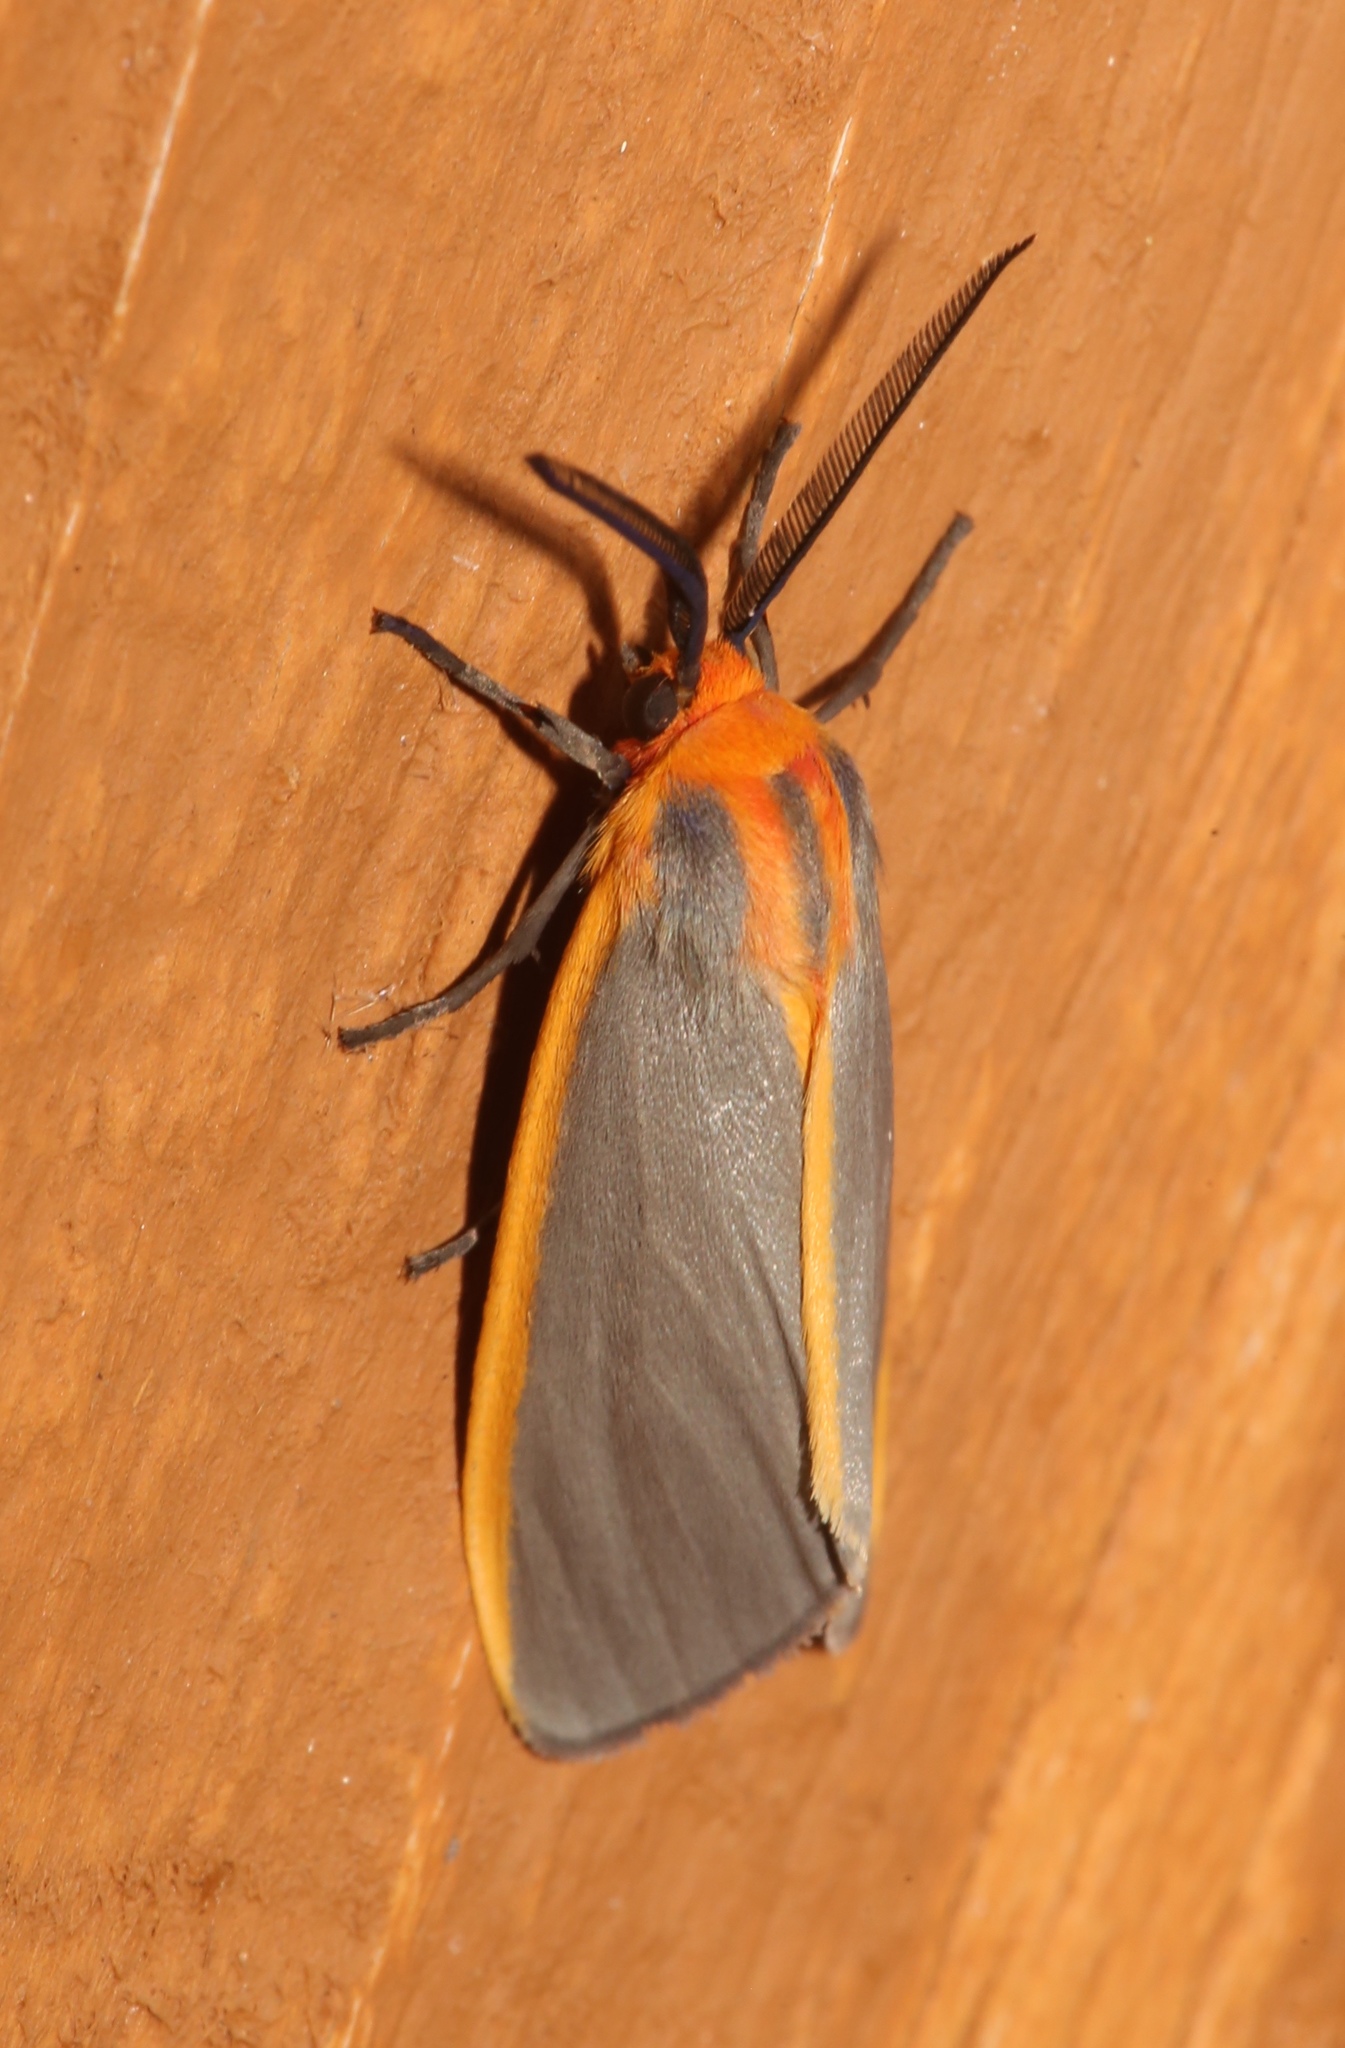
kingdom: Animalia
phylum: Arthropoda
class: Insecta
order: Lepidoptera
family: Erebidae
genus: Pygarctia
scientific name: Pygarctia abdominalis
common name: Yellow-edged pygarctia moth
